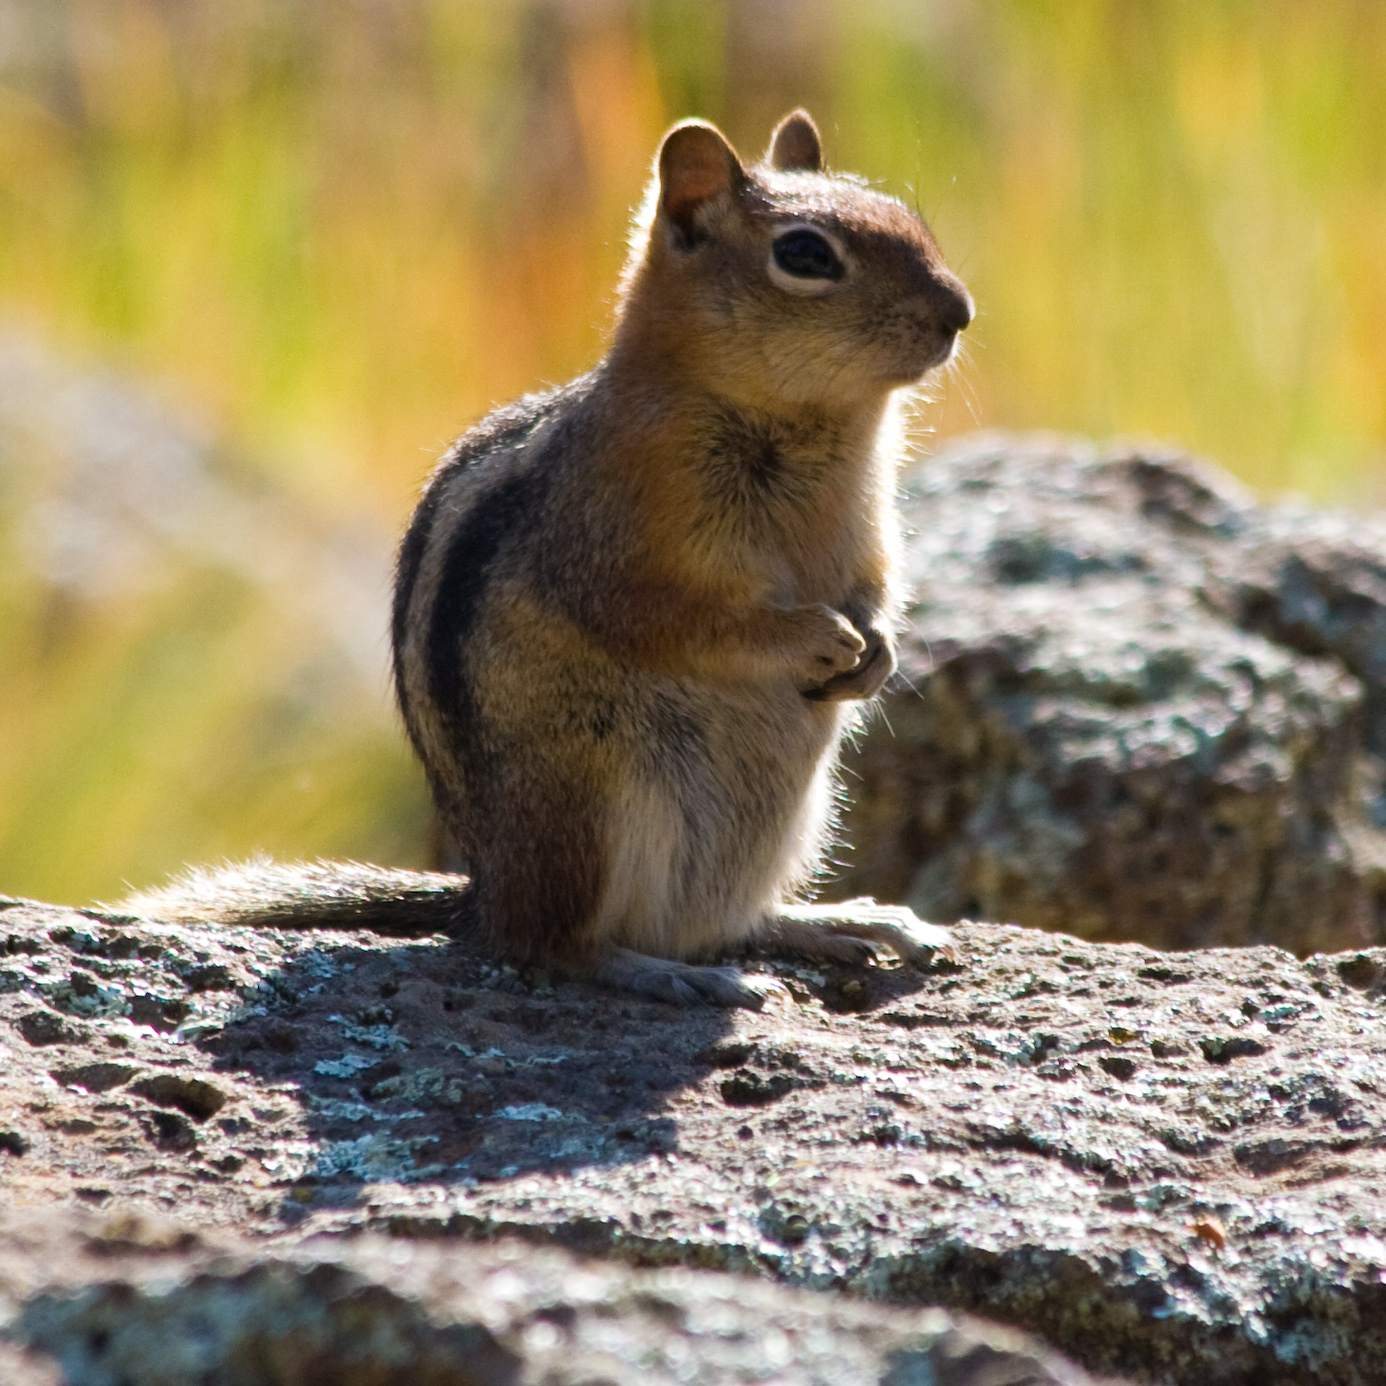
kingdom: Animalia
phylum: Chordata
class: Mammalia
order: Rodentia
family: Sciuridae
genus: Callospermophilus
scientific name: Callospermophilus lateralis
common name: Golden-mantled ground squirrel
